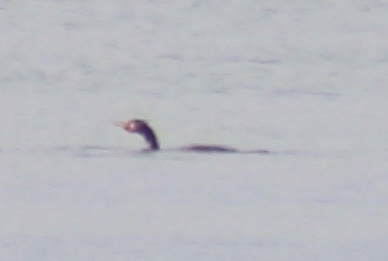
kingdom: Animalia
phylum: Chordata
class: Aves
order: Suliformes
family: Phalacrocoracidae
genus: Phalacrocorax
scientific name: Phalacrocorax auritus
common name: Double-crested cormorant
